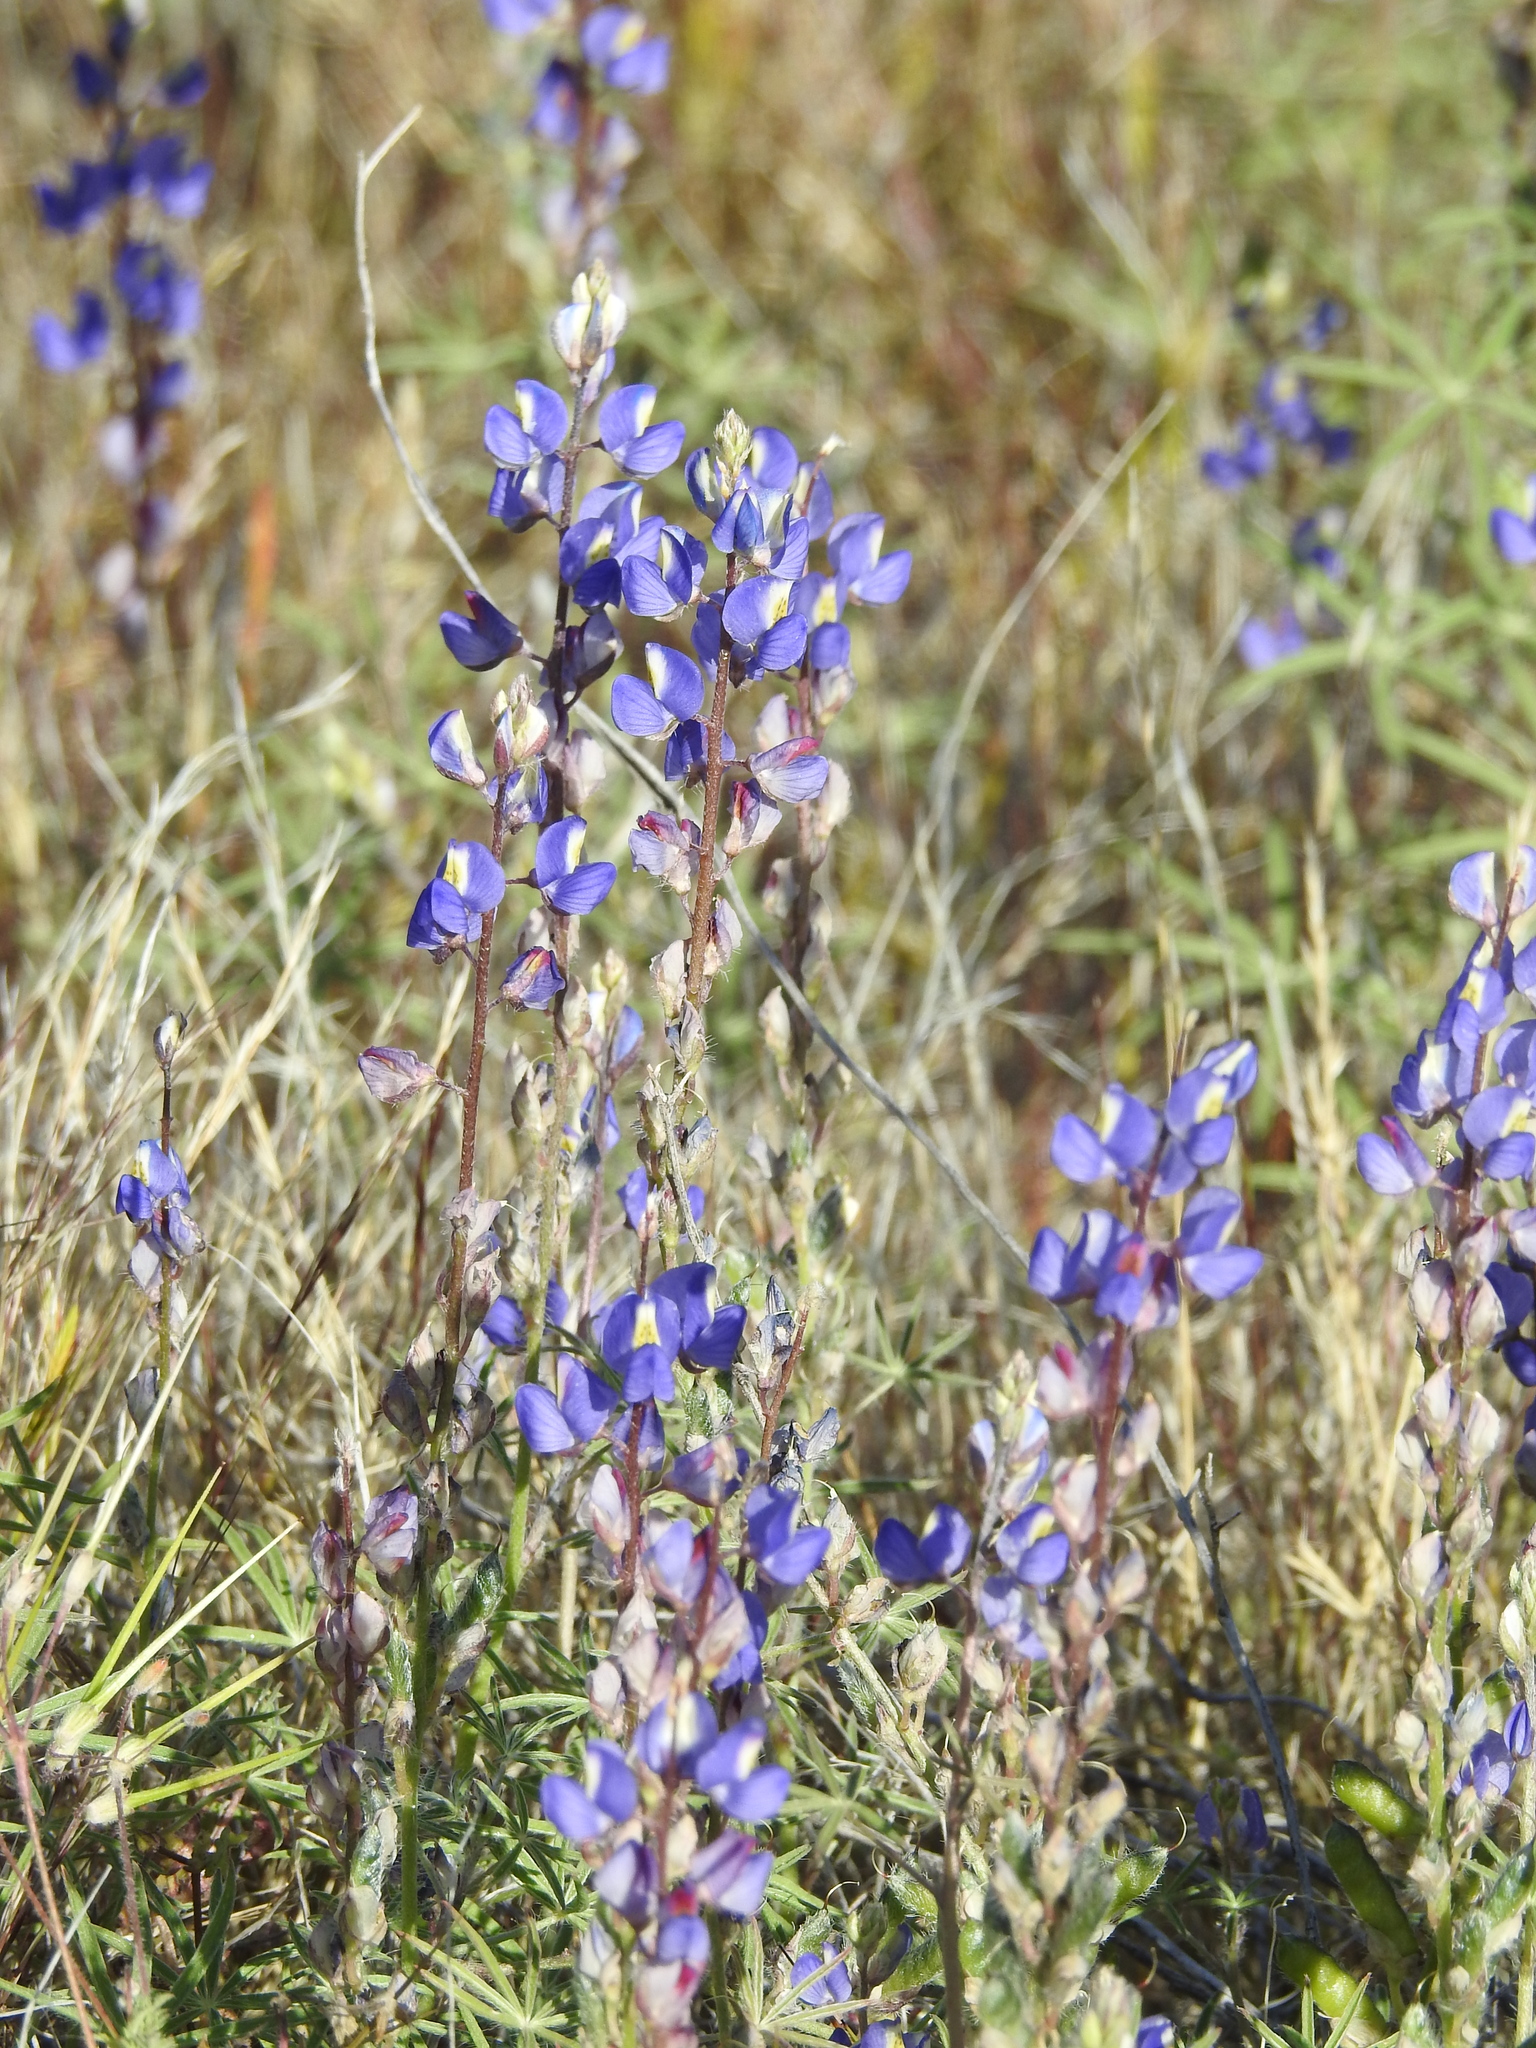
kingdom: Plantae
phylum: Tracheophyta
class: Magnoliopsida
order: Fabales
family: Fabaceae
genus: Lupinus
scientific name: Lupinus sparsiflorus
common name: Coulter's lupine
